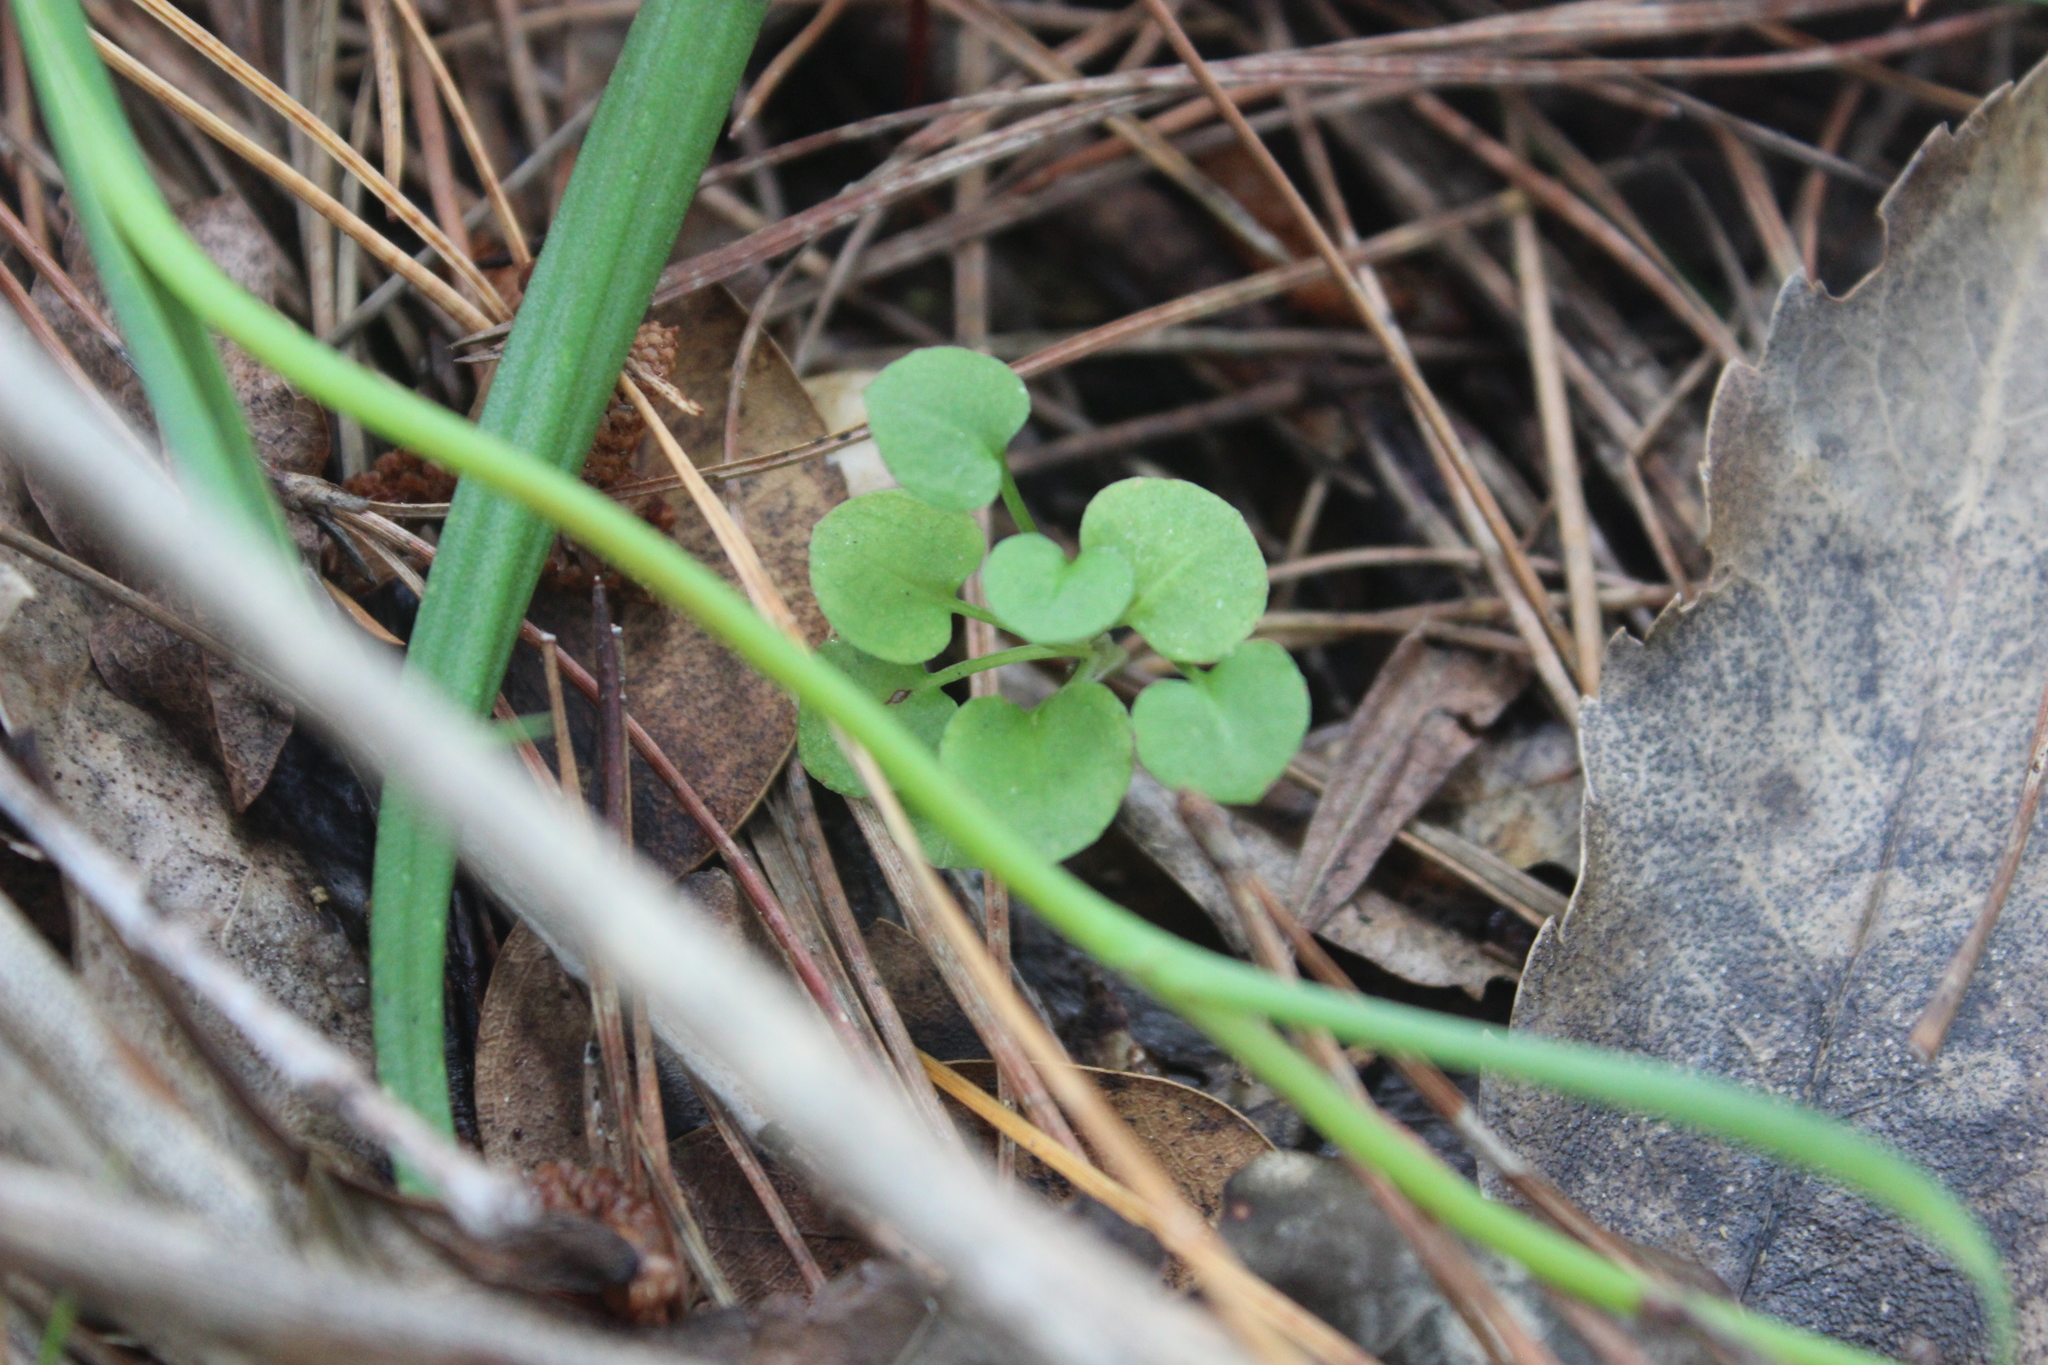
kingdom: Plantae
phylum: Tracheophyta
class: Liliopsida
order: Asparagales
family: Orchidaceae
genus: Pterostylis
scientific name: Pterostylis alobula
